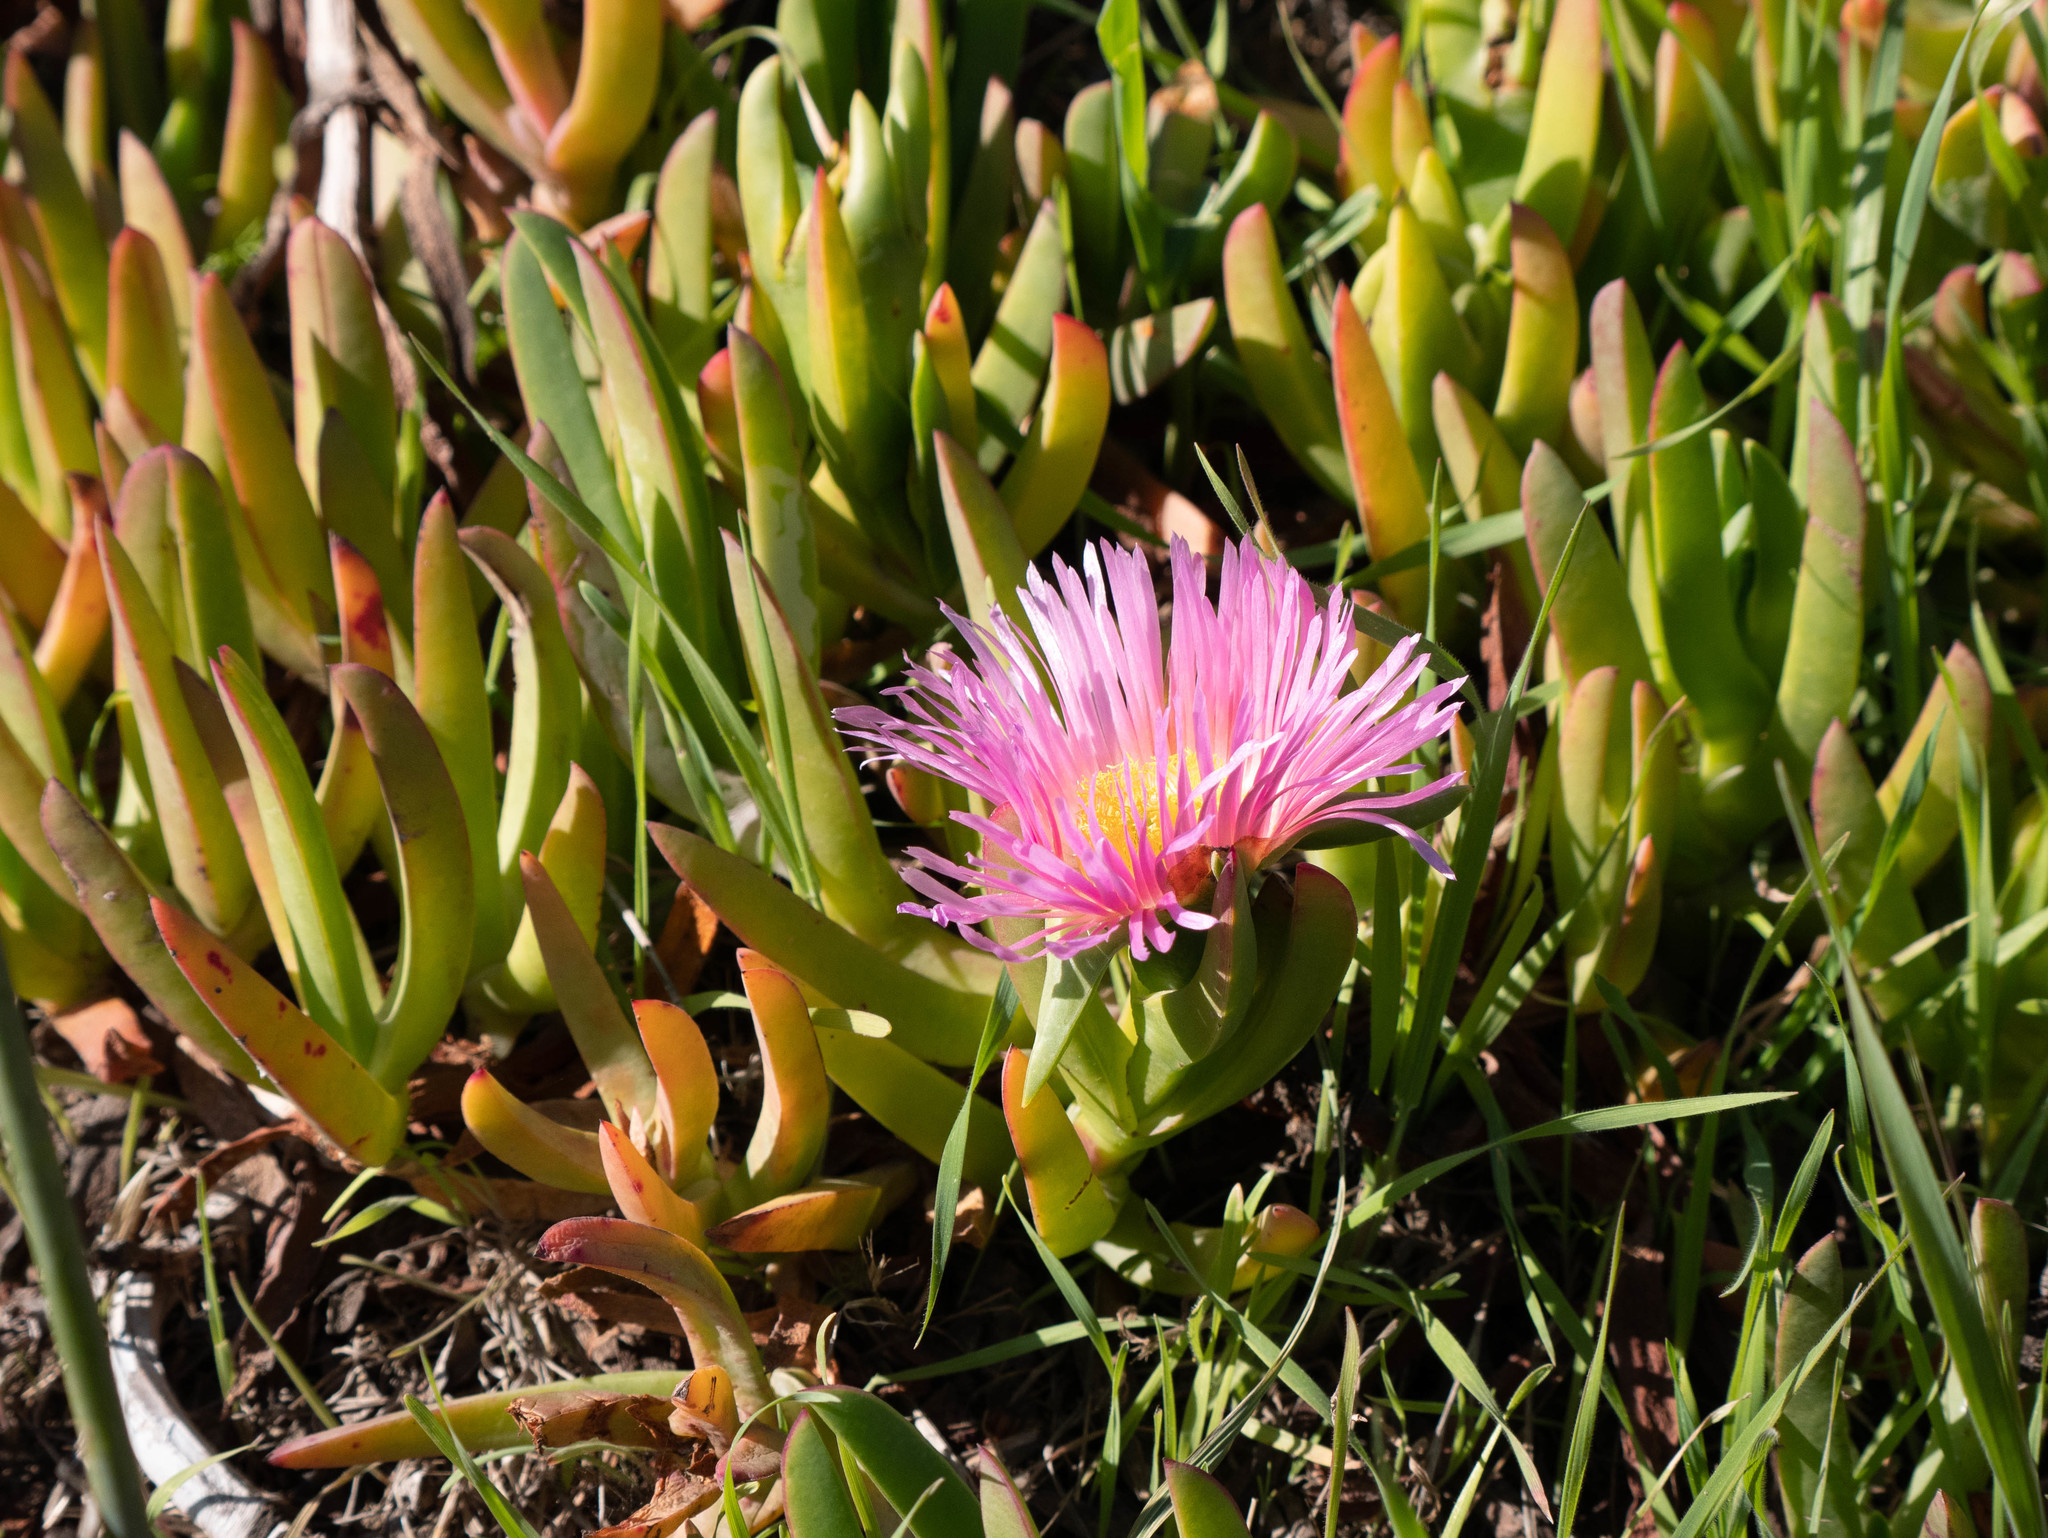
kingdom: Plantae
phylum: Tracheophyta
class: Magnoliopsida
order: Caryophyllales
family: Aizoaceae
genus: Carpobrotus
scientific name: Carpobrotus chilensis
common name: Sea fig
